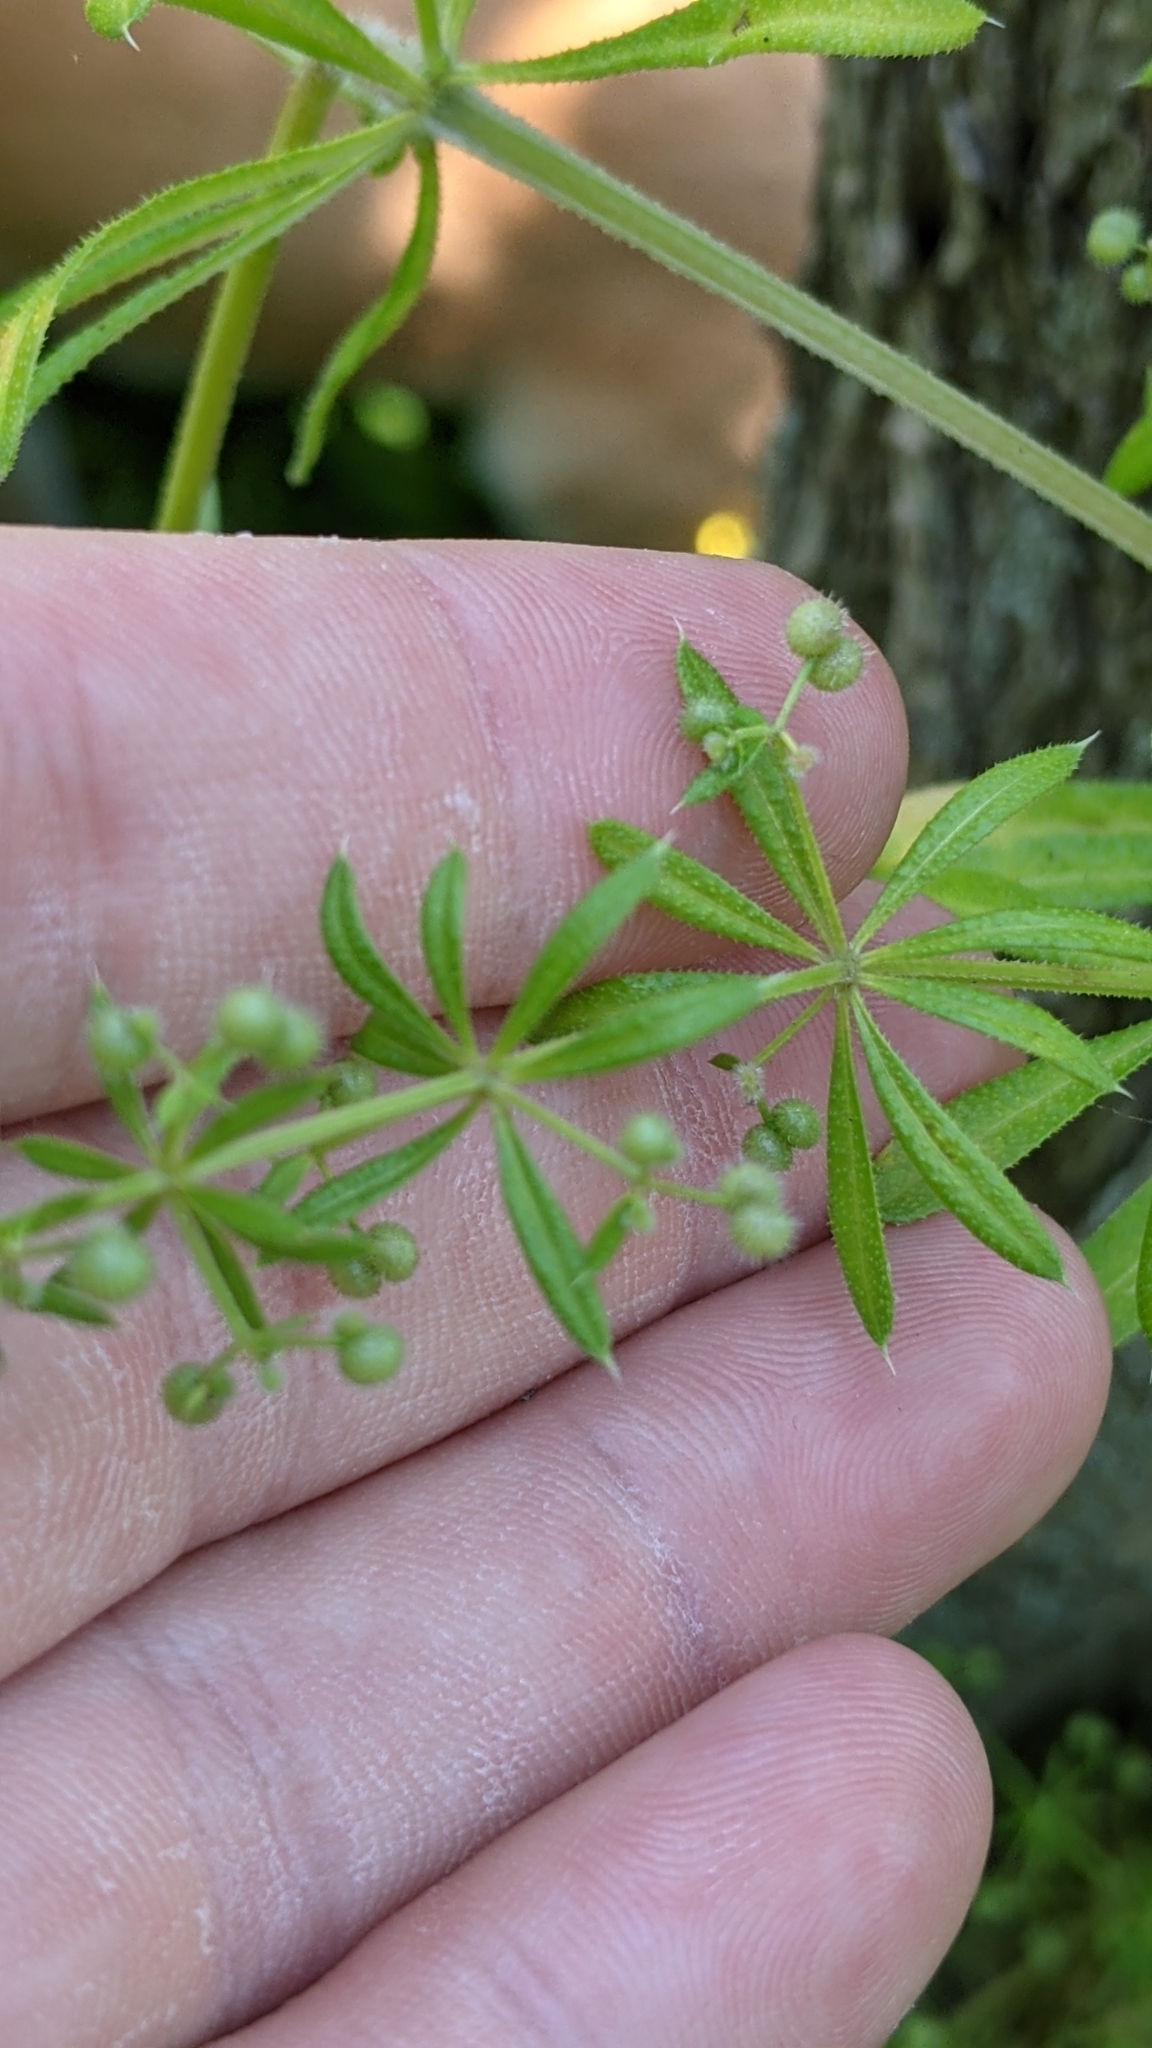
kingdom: Plantae
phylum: Tracheophyta
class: Magnoliopsida
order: Gentianales
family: Rubiaceae
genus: Galium
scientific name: Galium aparine
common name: Cleavers
